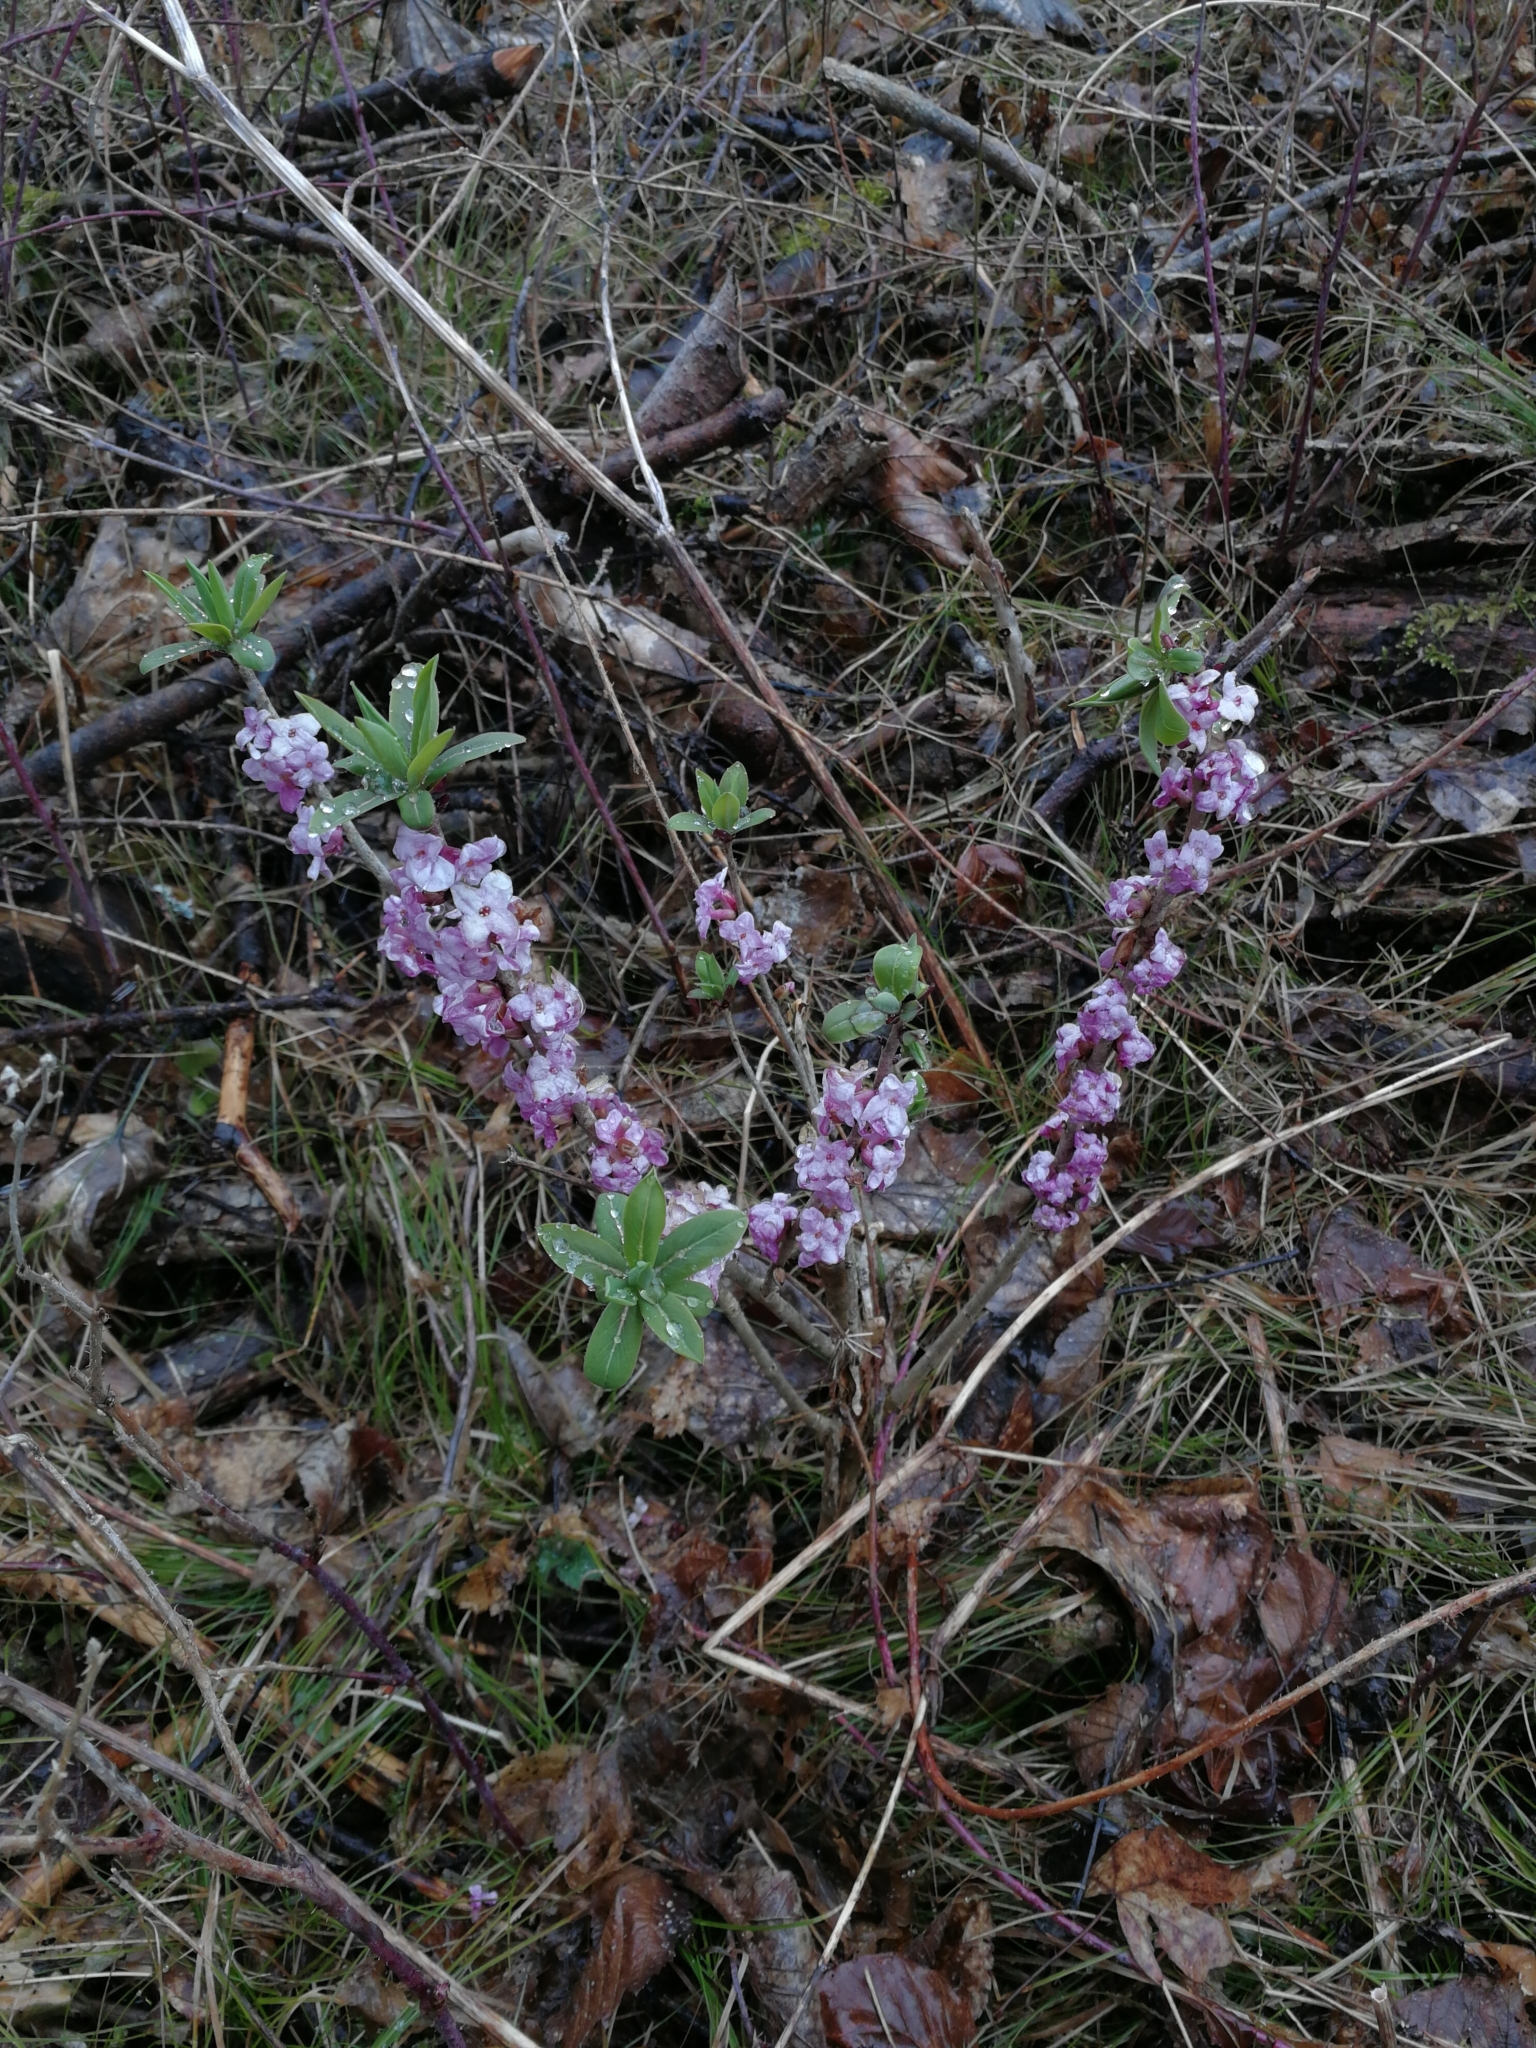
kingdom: Plantae
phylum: Tracheophyta
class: Magnoliopsida
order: Malvales
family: Thymelaeaceae
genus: Daphne
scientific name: Daphne mezereum
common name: Mezereon
